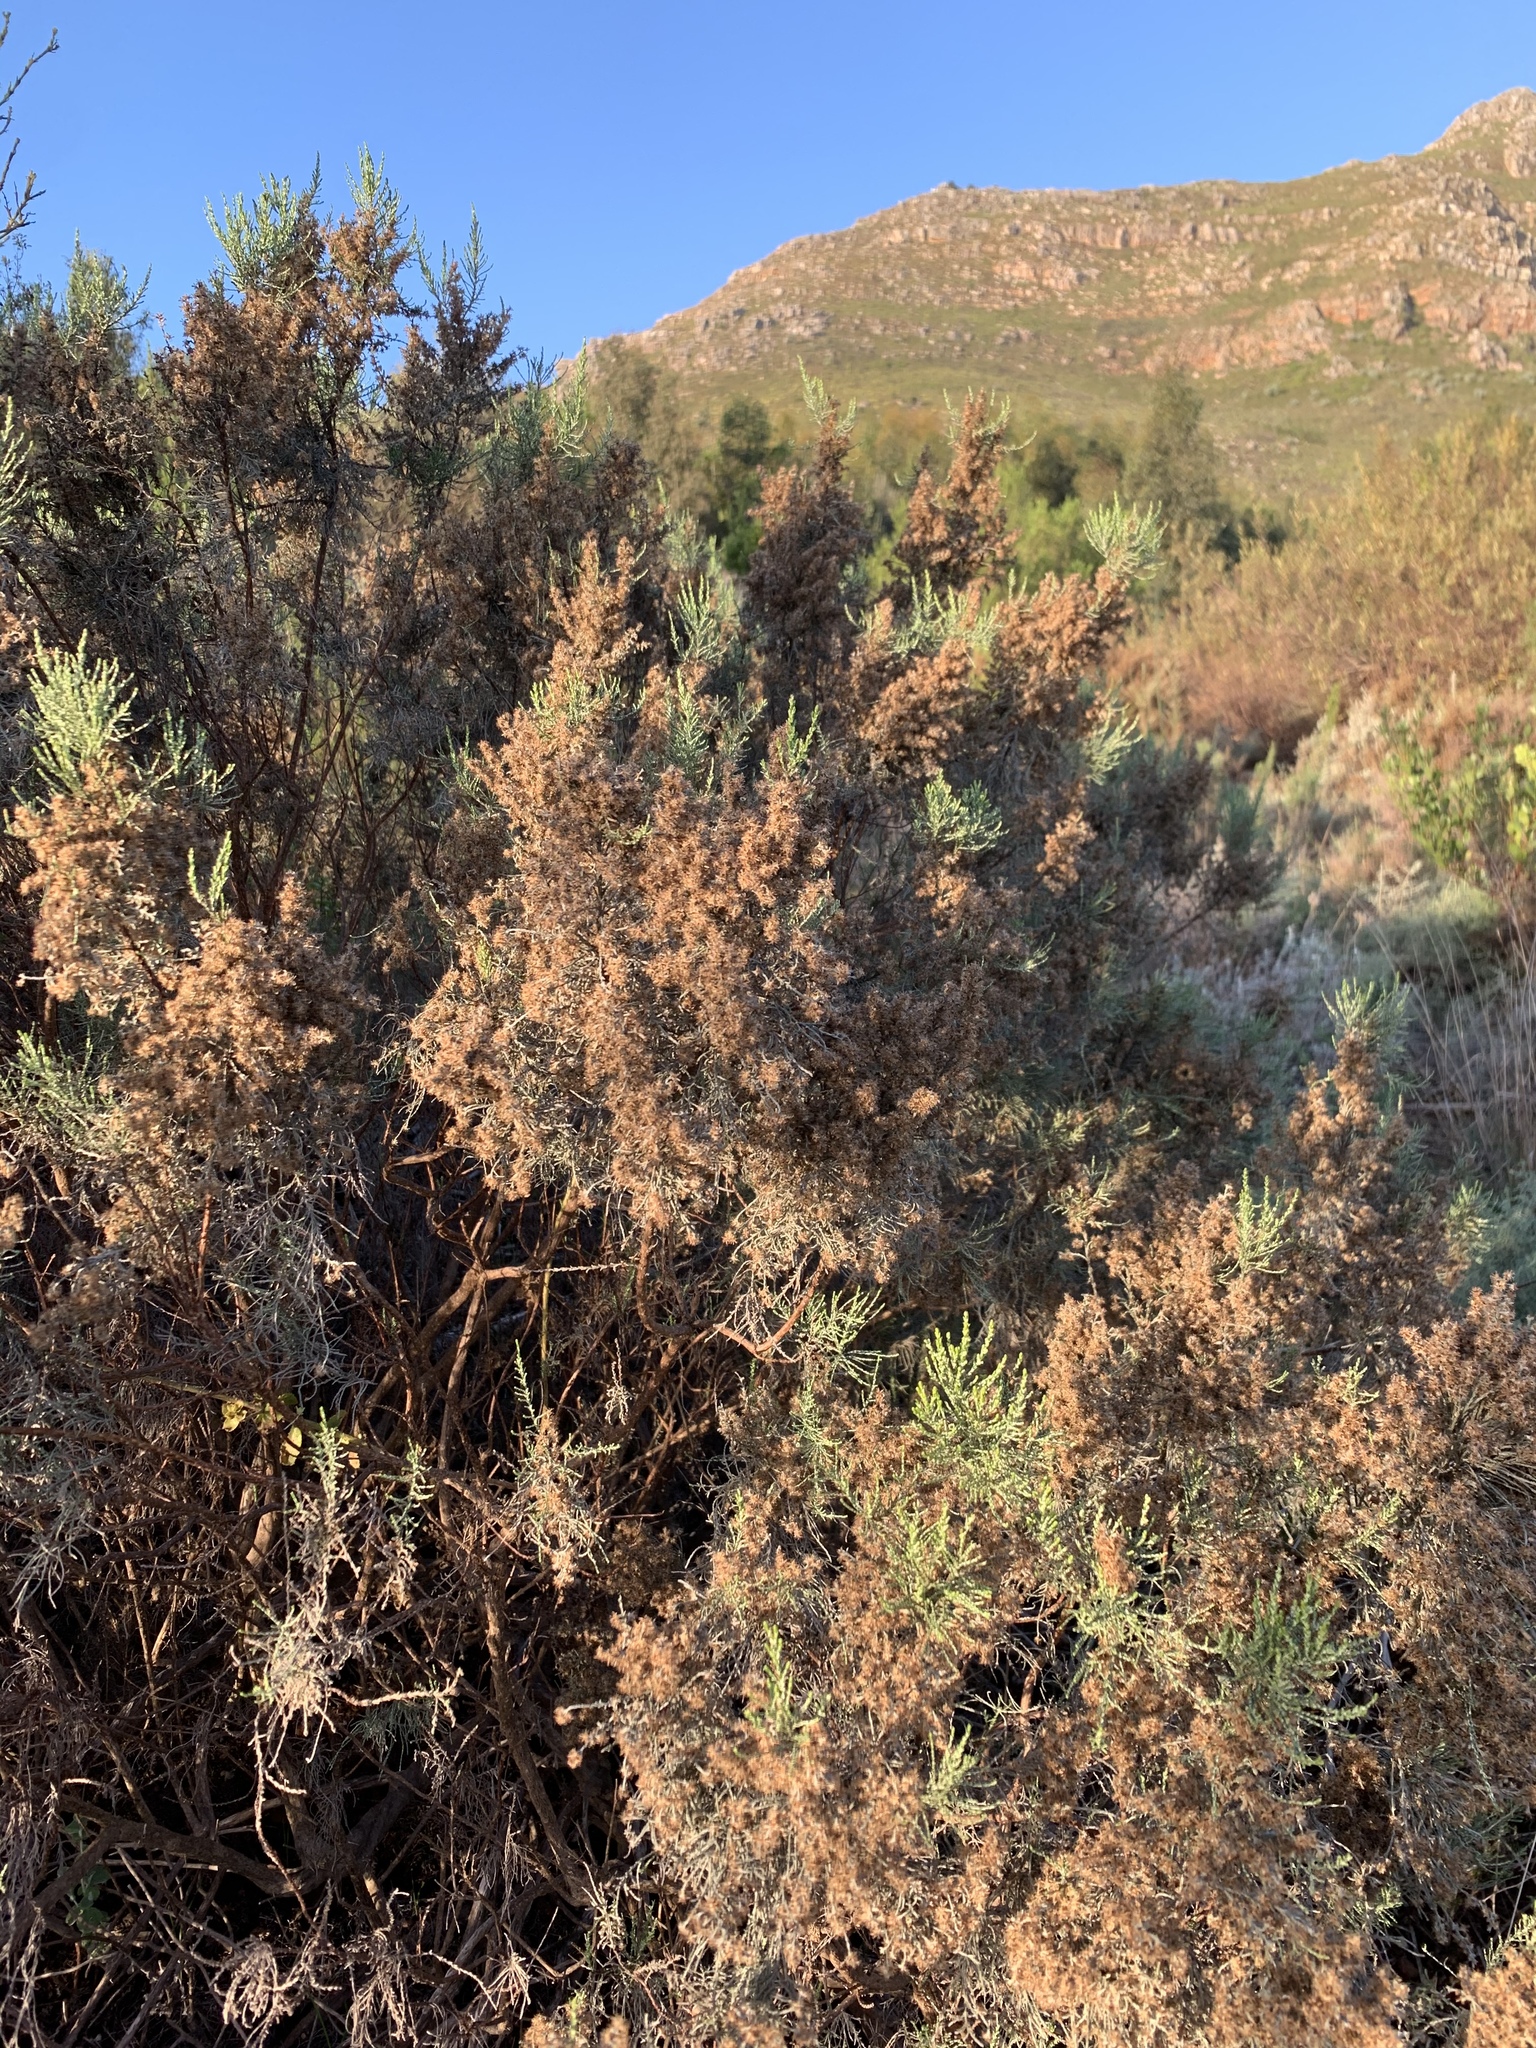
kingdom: Plantae
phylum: Tracheophyta
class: Magnoliopsida
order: Asterales
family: Asteraceae
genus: Dicerothamnus
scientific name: Dicerothamnus rhinocerotis
